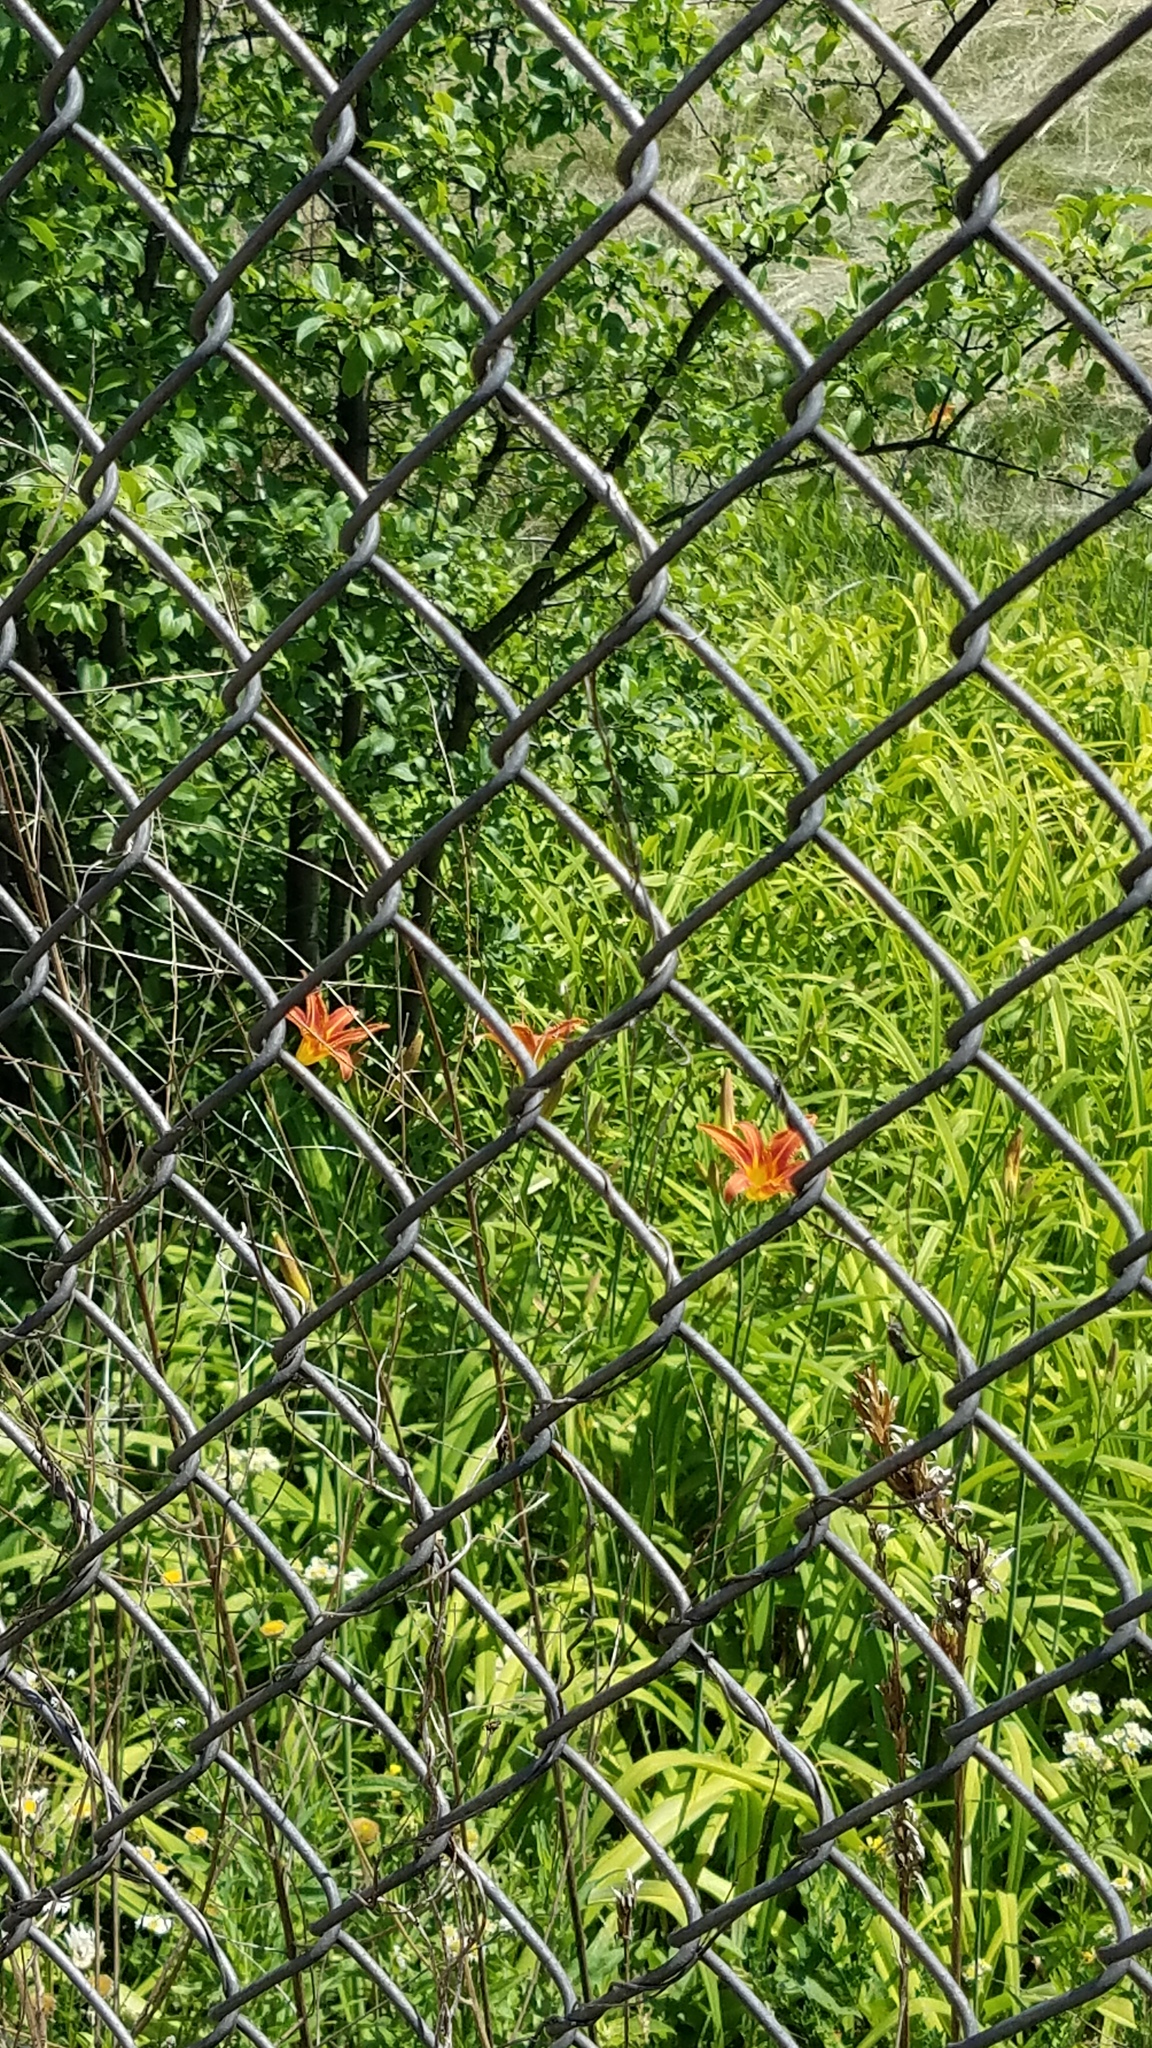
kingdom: Plantae
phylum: Tracheophyta
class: Liliopsida
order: Asparagales
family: Asphodelaceae
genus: Hemerocallis
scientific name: Hemerocallis fulva
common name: Orange day-lily
